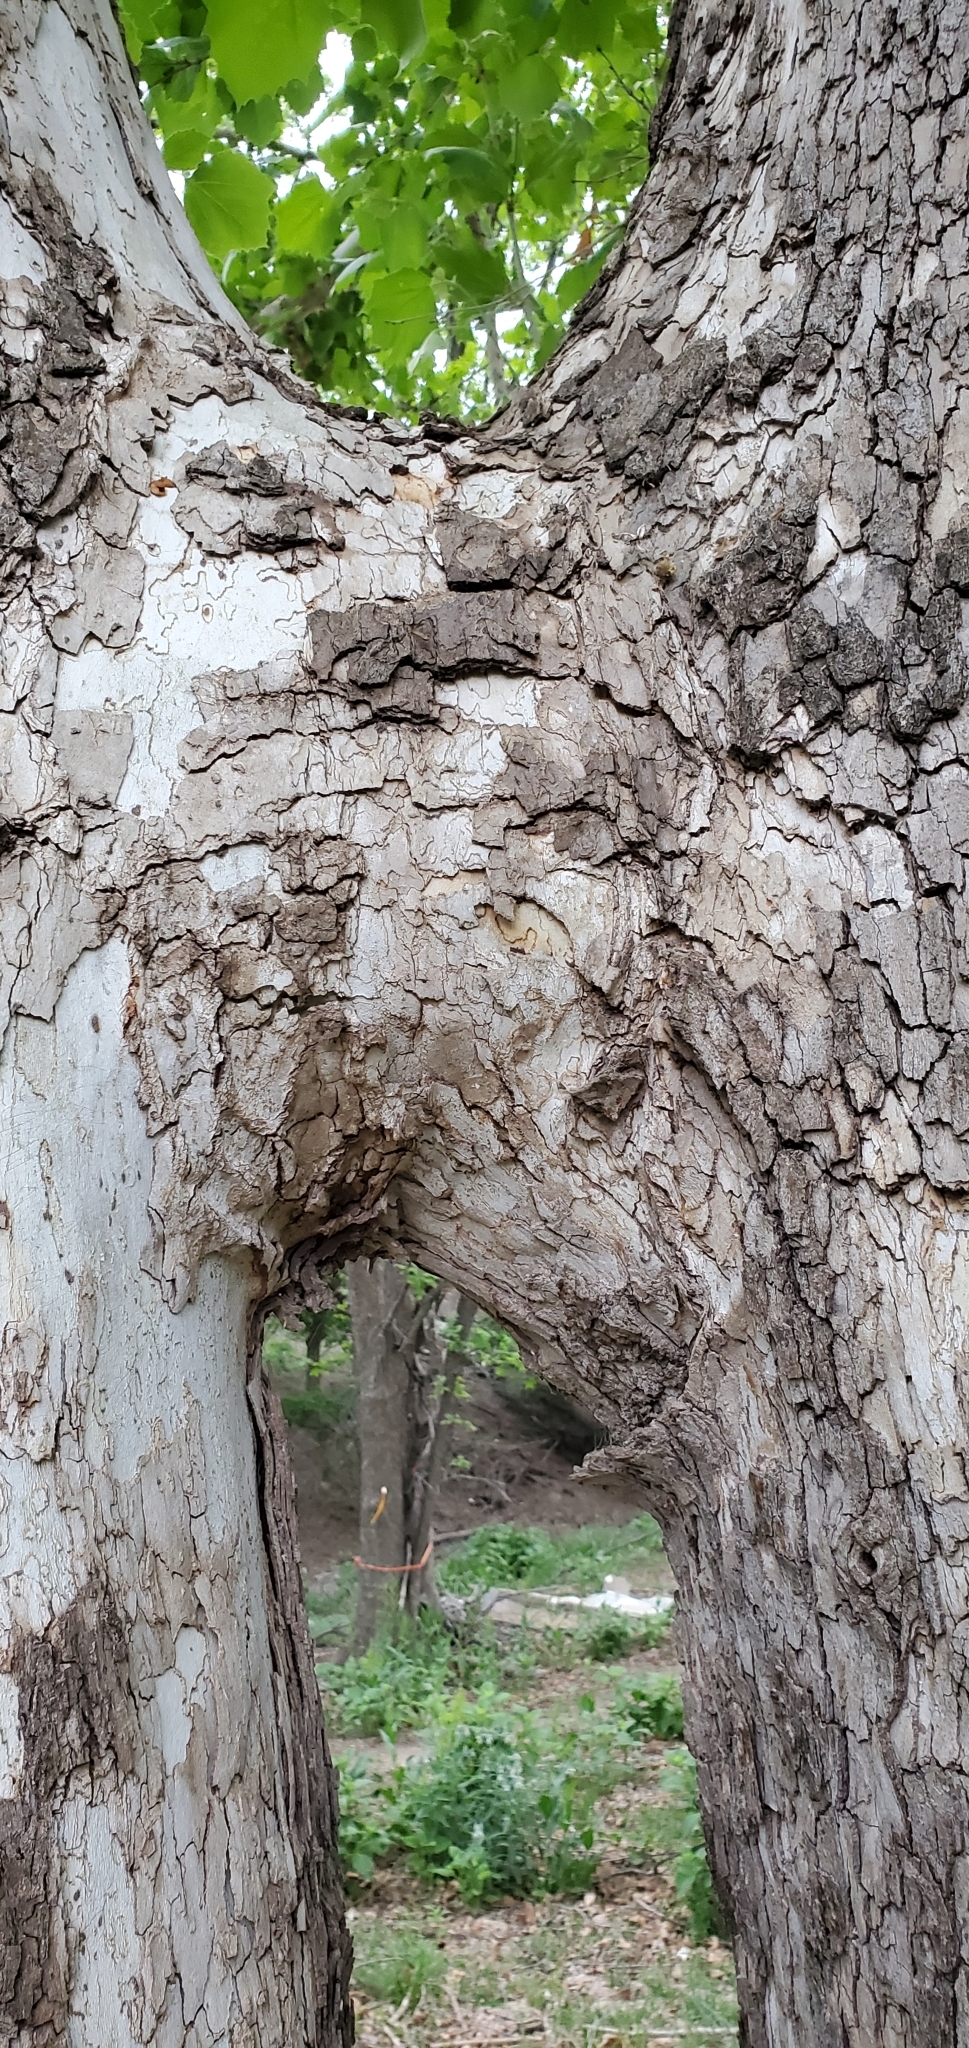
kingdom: Plantae
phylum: Tracheophyta
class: Magnoliopsida
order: Proteales
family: Platanaceae
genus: Platanus
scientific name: Platanus occidentalis
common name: American sycamore
